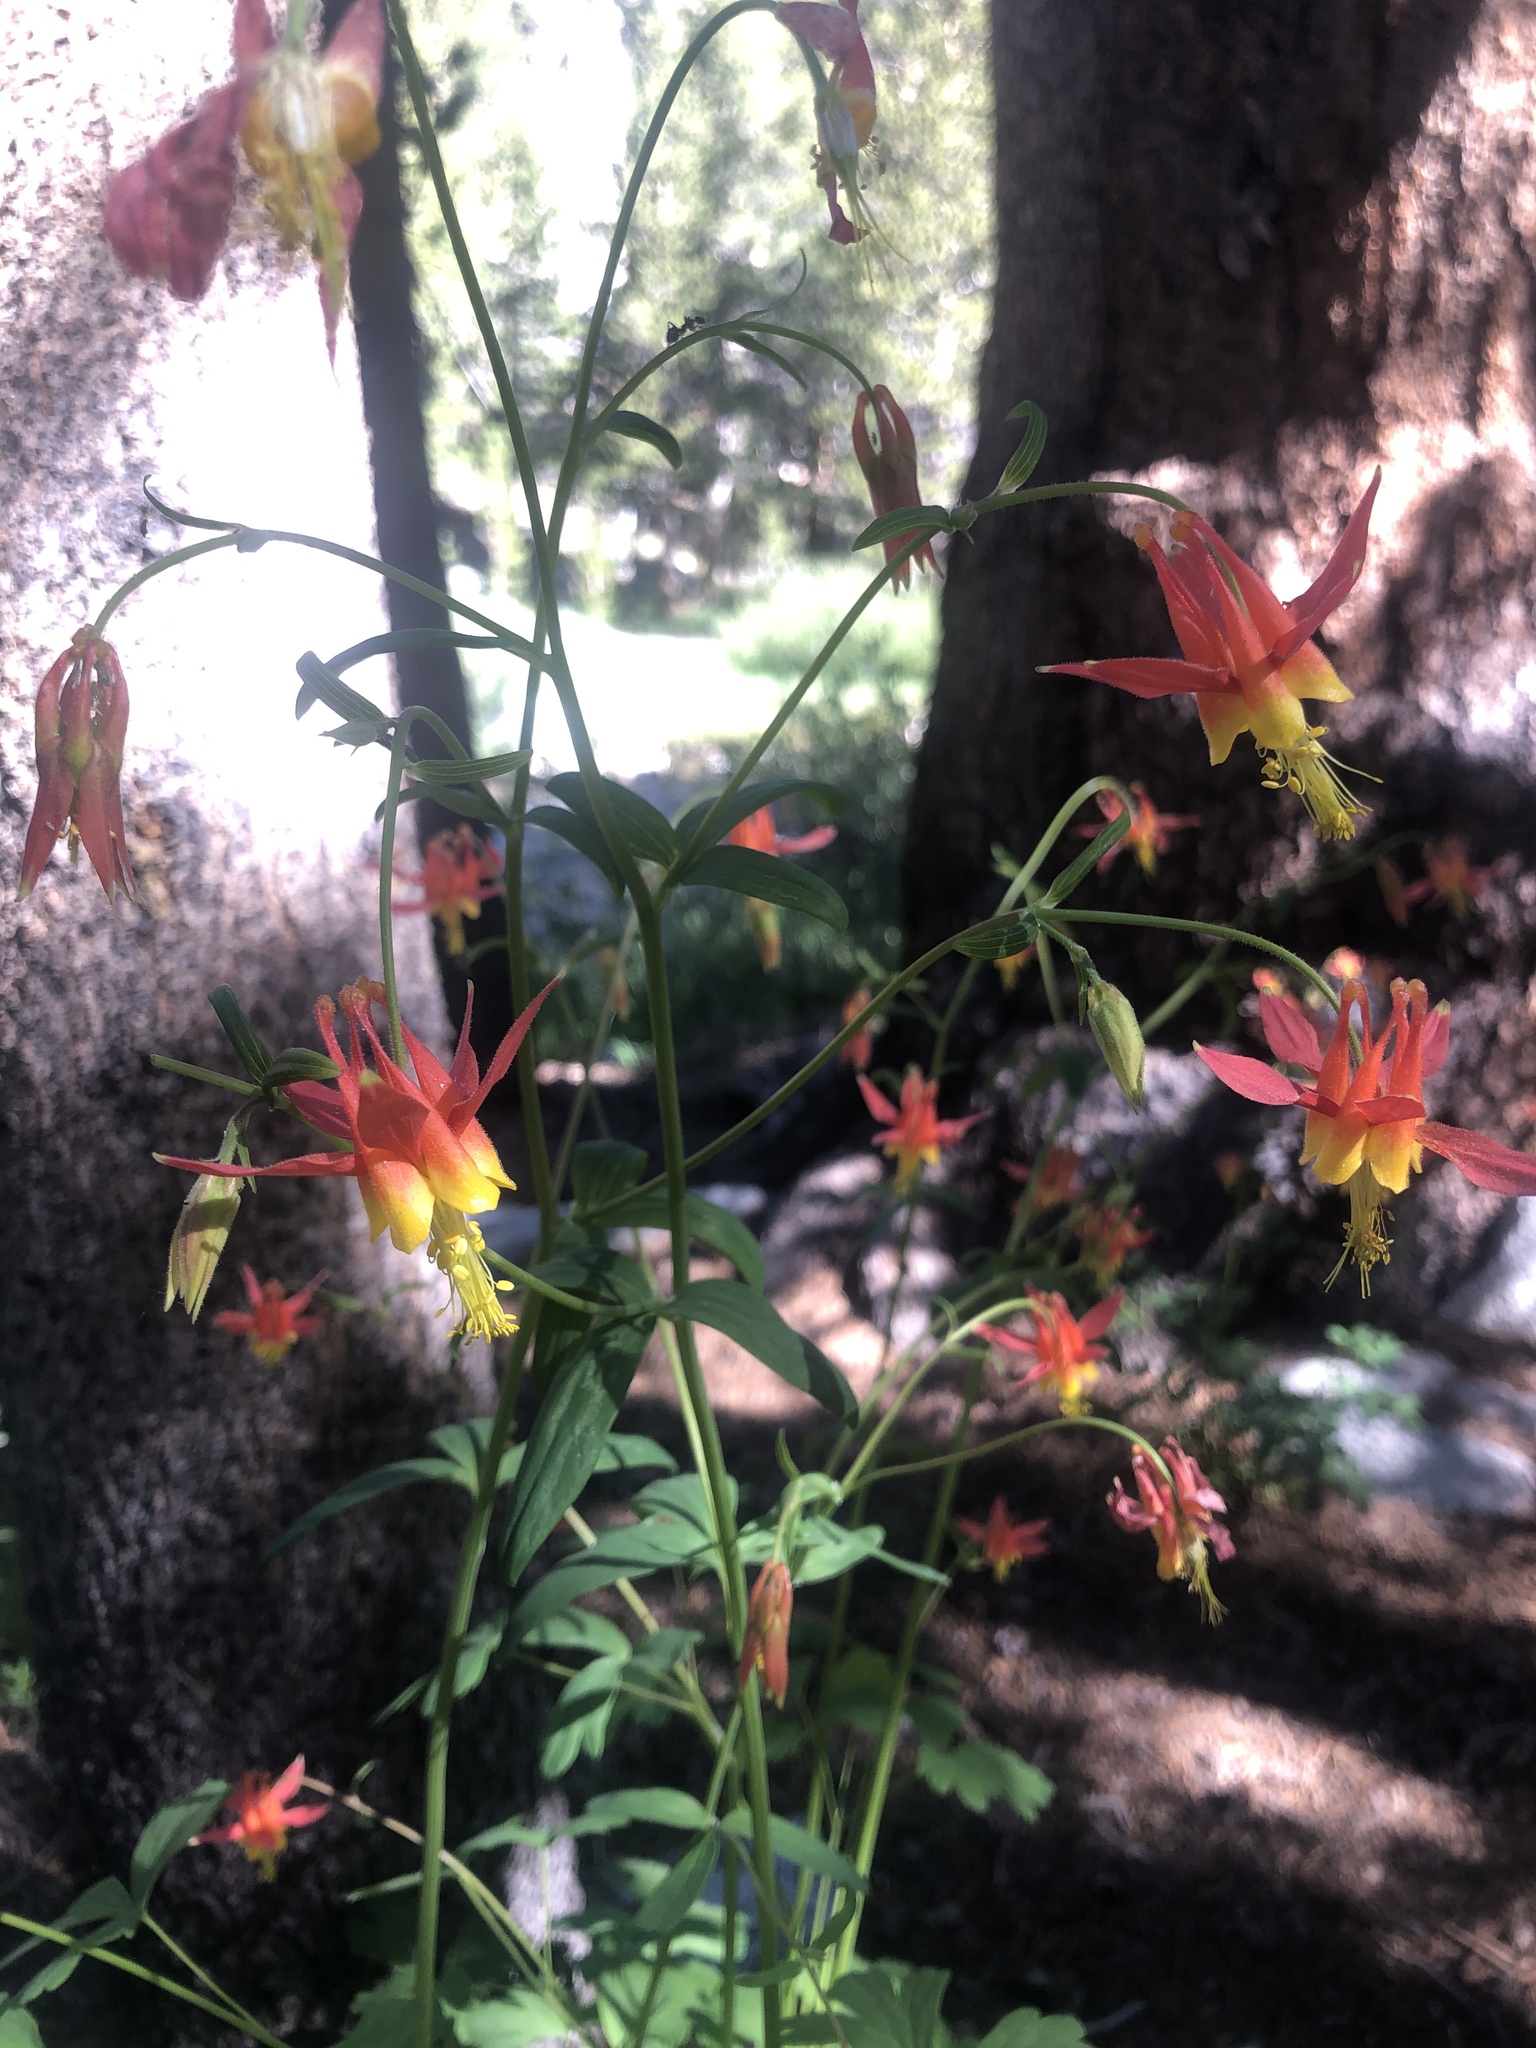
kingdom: Plantae
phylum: Tracheophyta
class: Magnoliopsida
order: Ranunculales
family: Ranunculaceae
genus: Aquilegia
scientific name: Aquilegia formosa
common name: Sitka columbine
